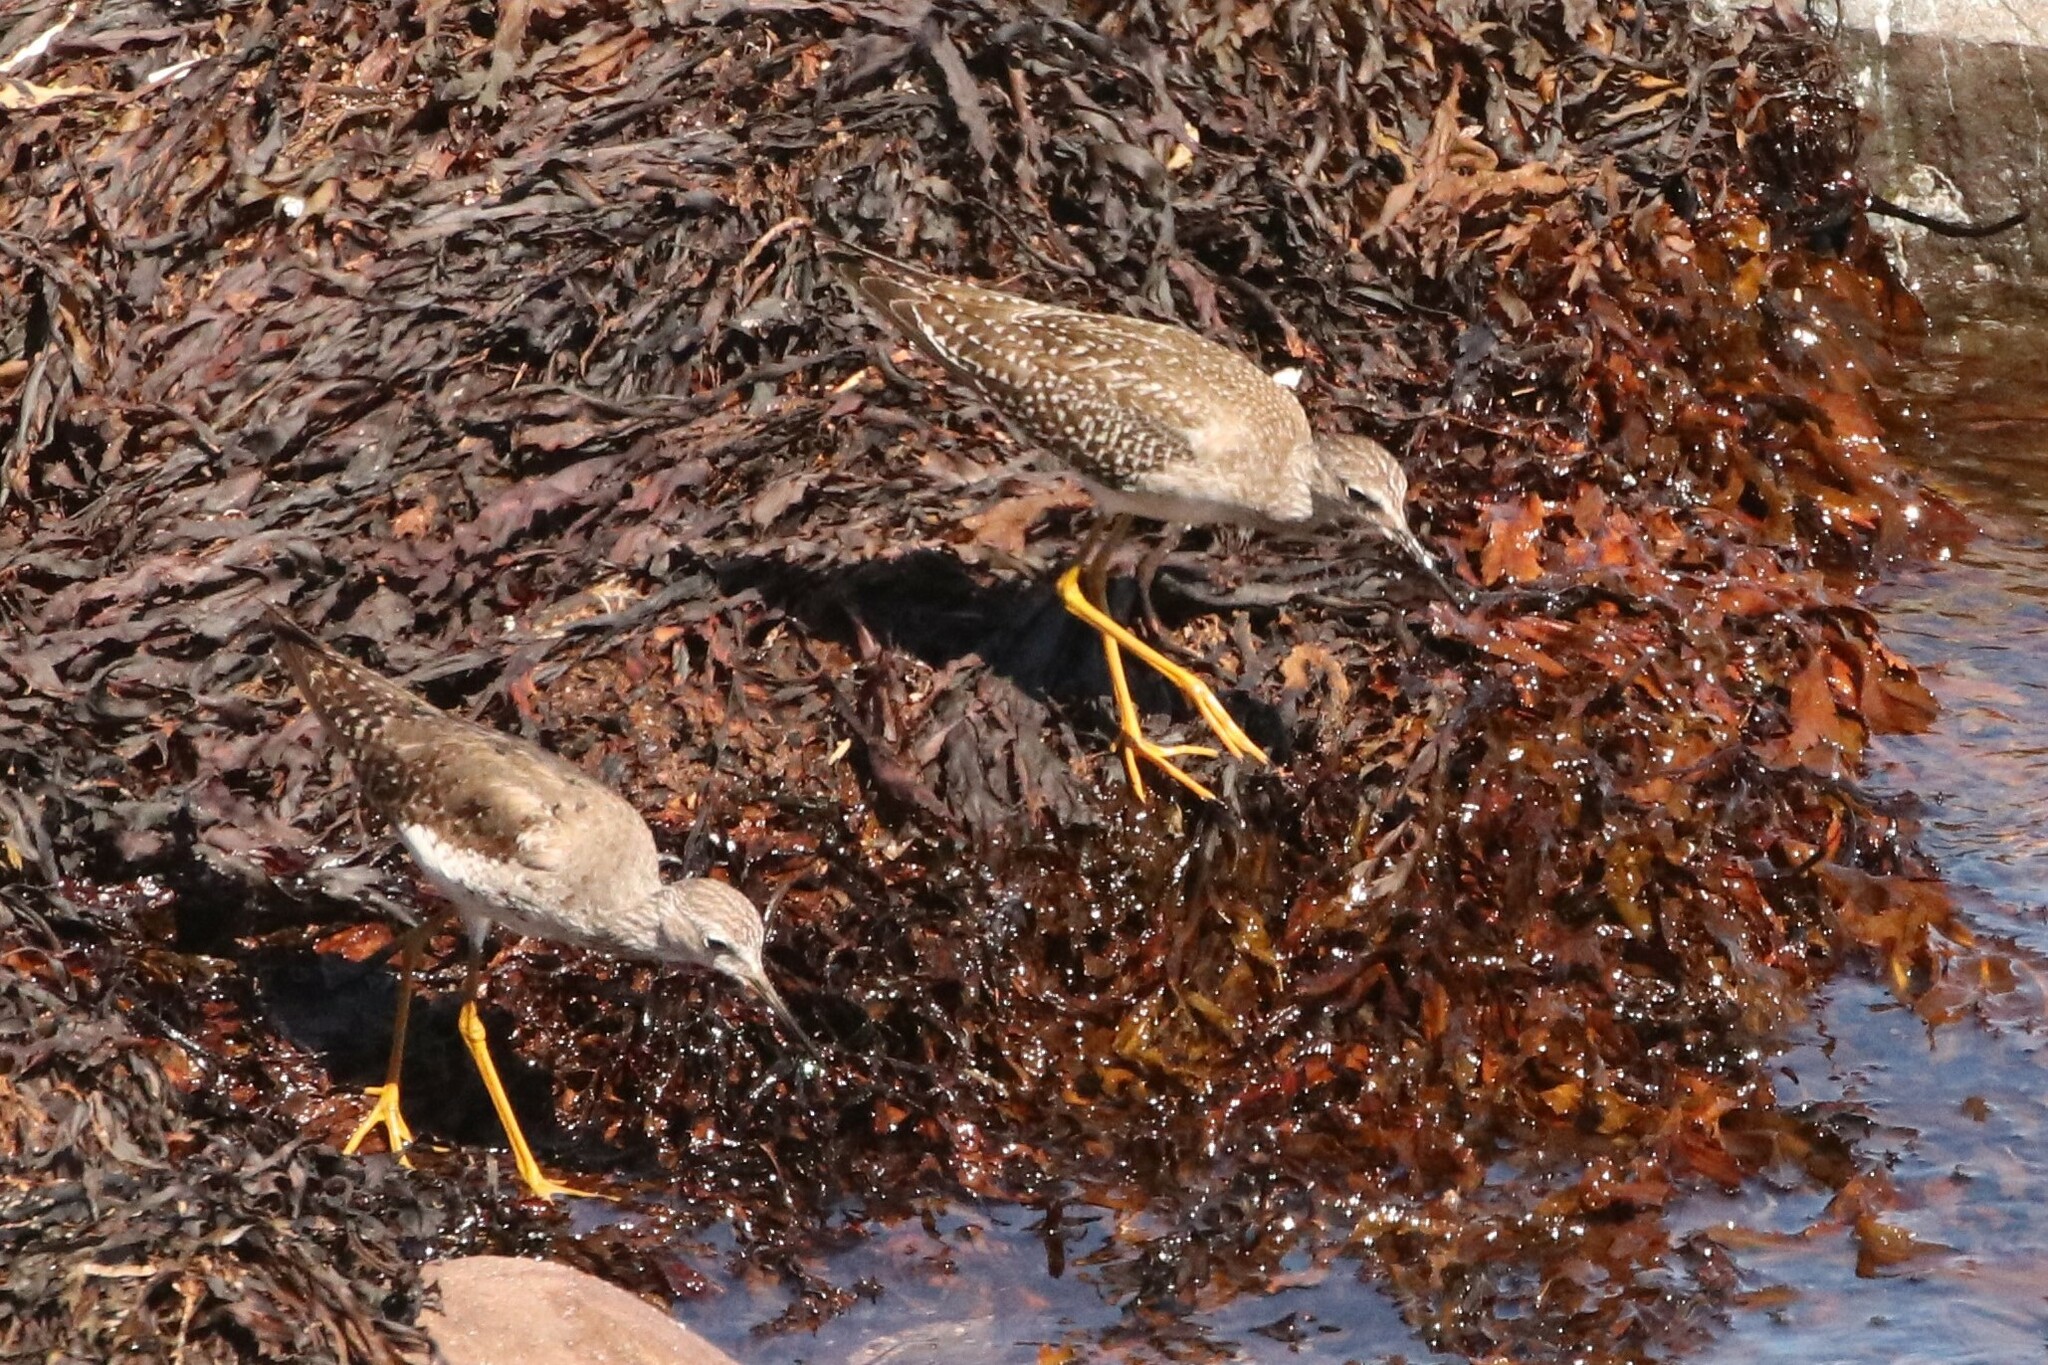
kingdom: Animalia
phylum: Chordata
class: Aves
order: Charadriiformes
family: Scolopacidae
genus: Tringa
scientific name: Tringa flavipes
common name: Lesser yellowlegs
